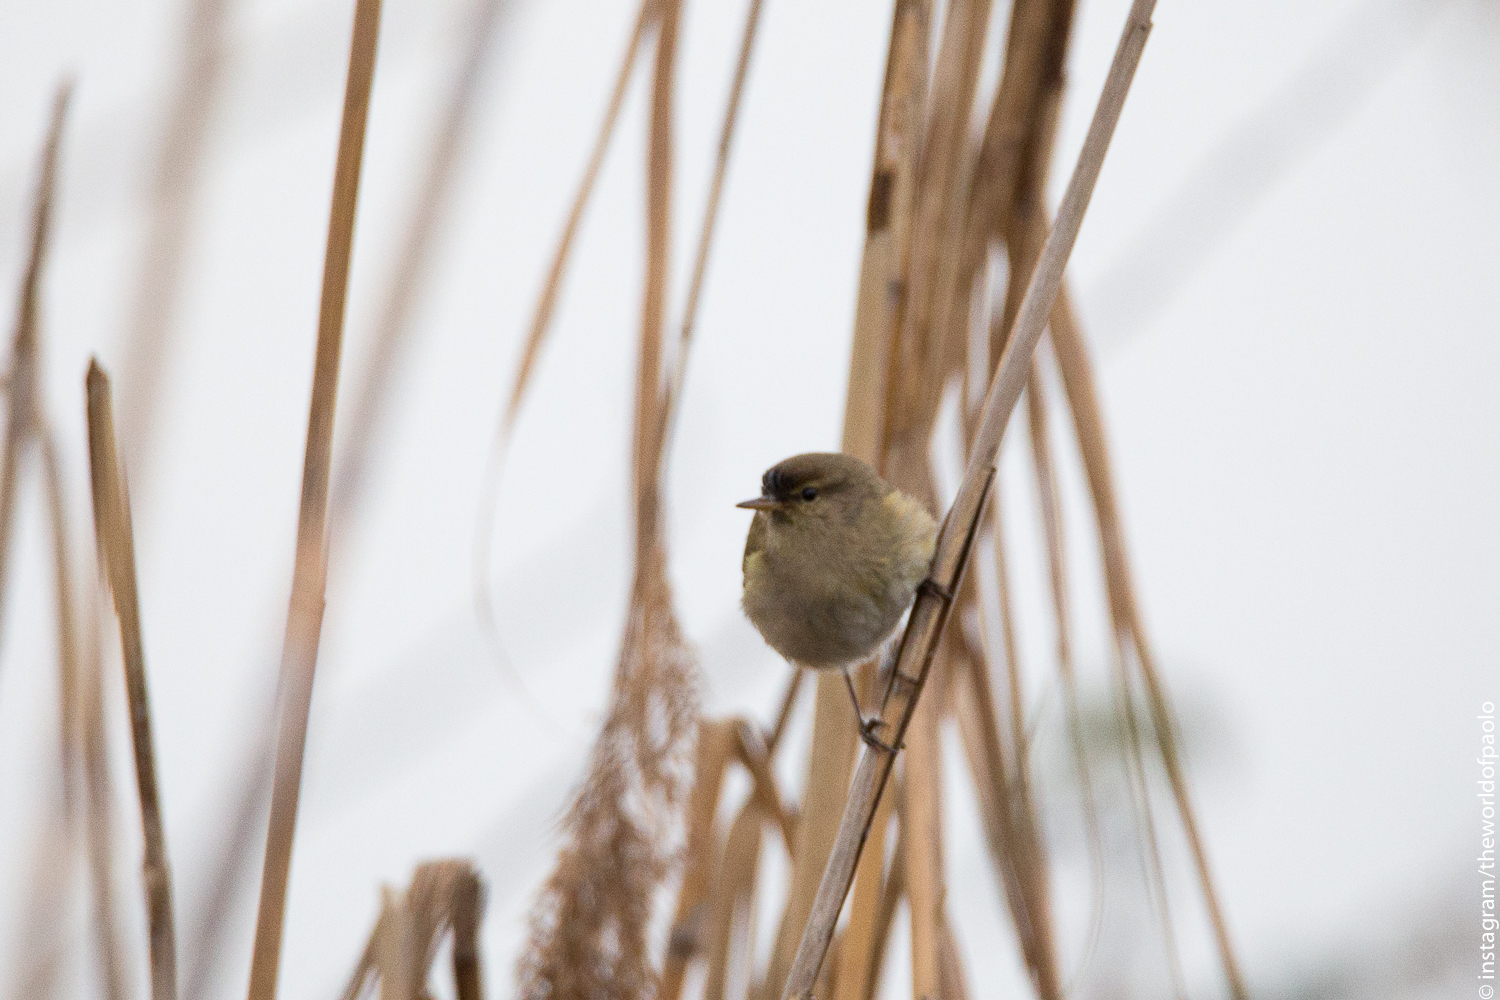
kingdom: Animalia
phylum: Chordata
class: Aves
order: Passeriformes
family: Phylloscopidae
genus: Phylloscopus
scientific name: Phylloscopus collybita
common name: Common chiffchaff
